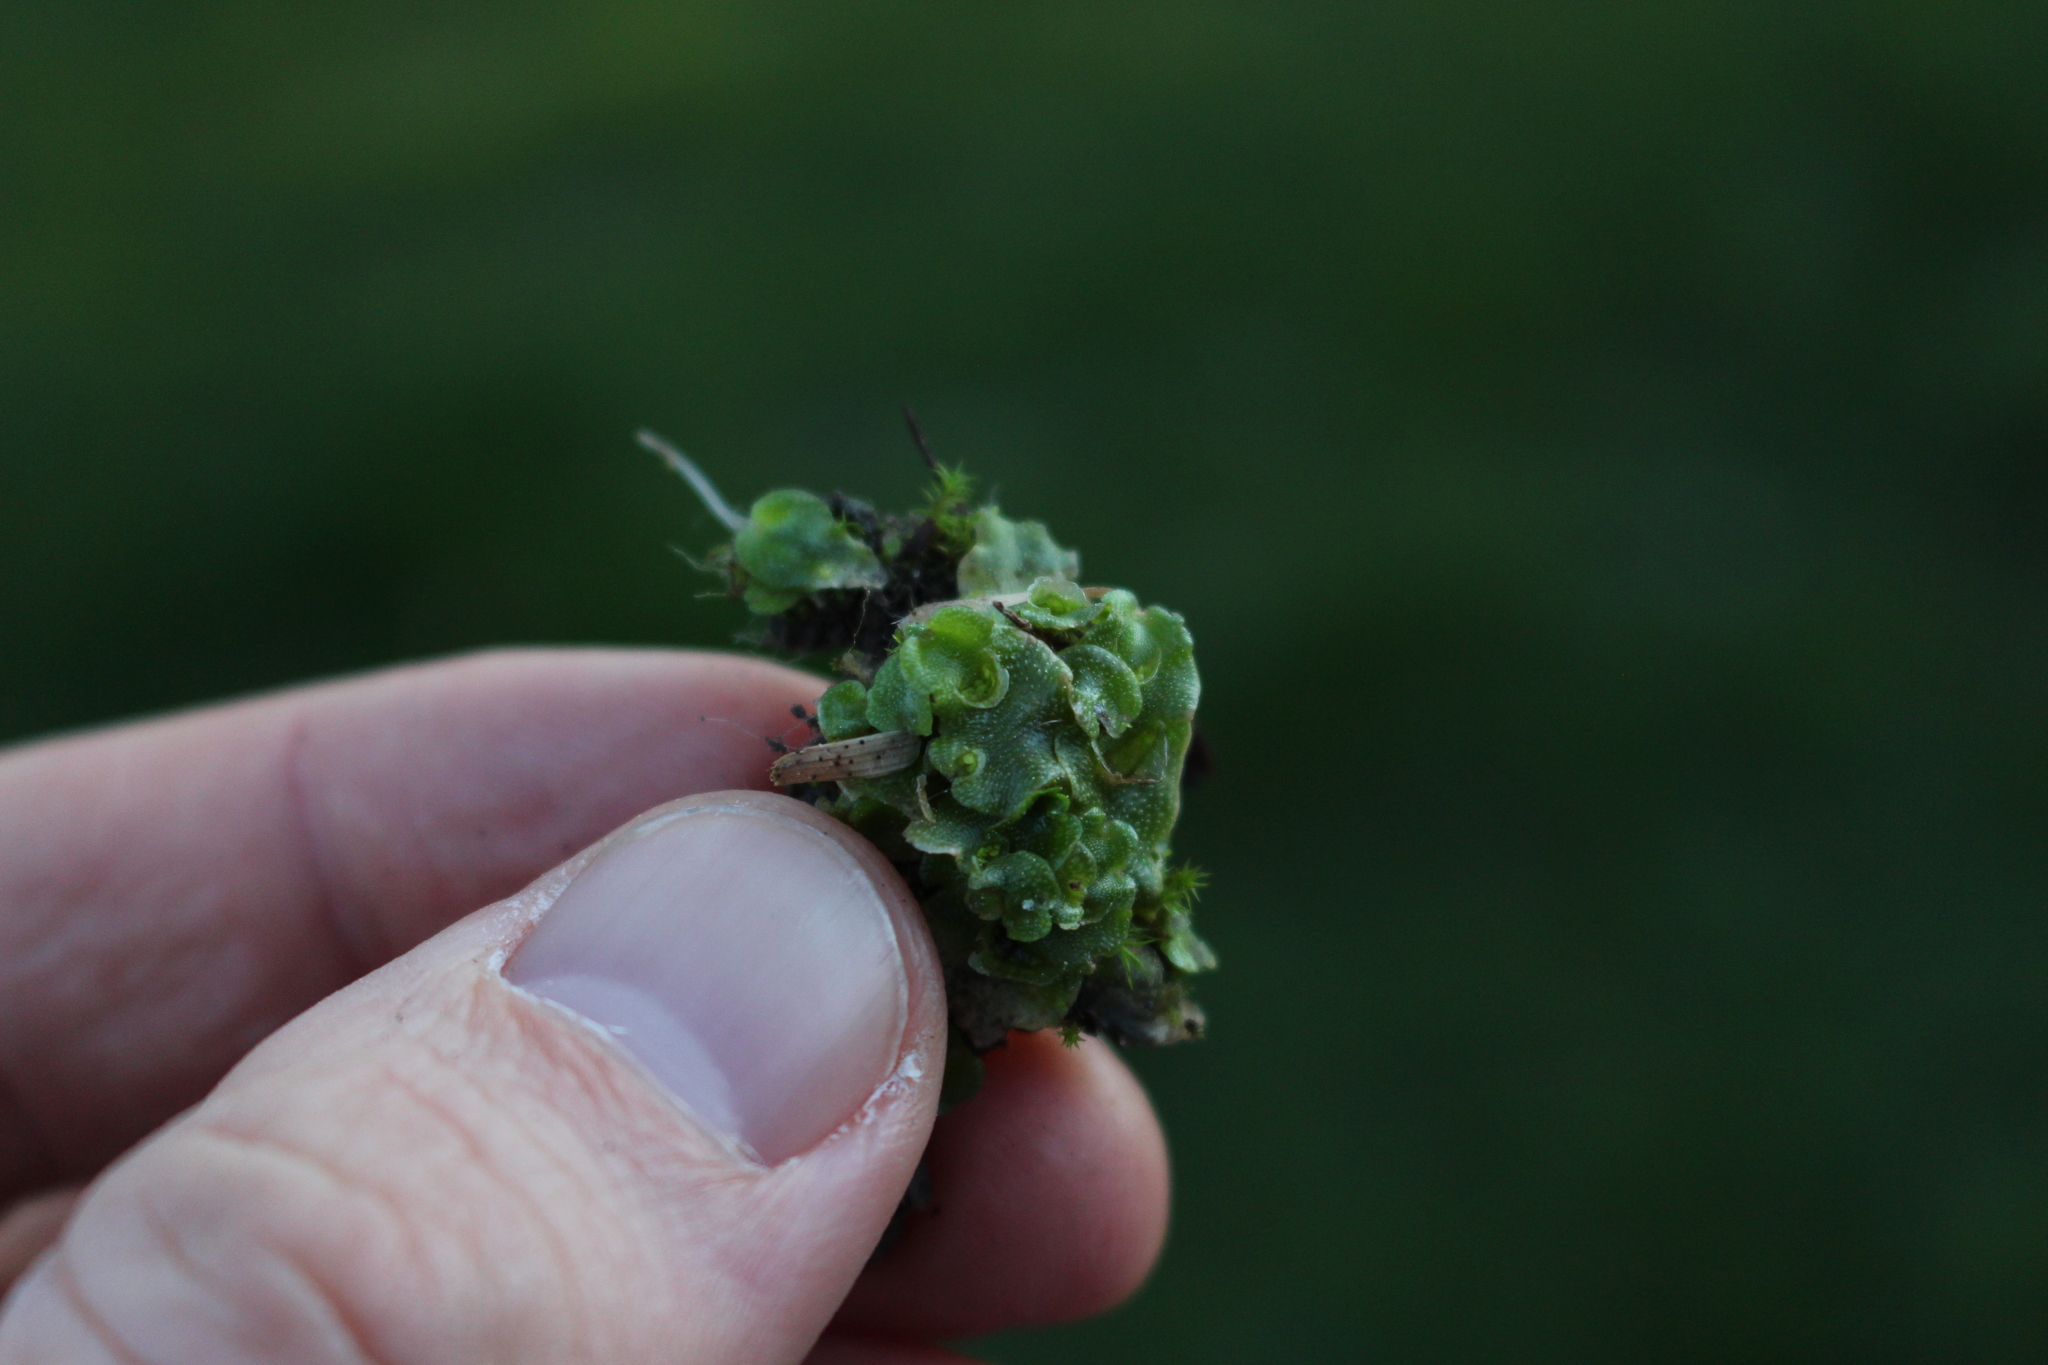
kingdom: Plantae
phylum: Marchantiophyta
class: Marchantiopsida
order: Lunulariales
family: Lunulariaceae
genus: Lunularia
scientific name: Lunularia cruciata
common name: Crescent-cup liverwort
